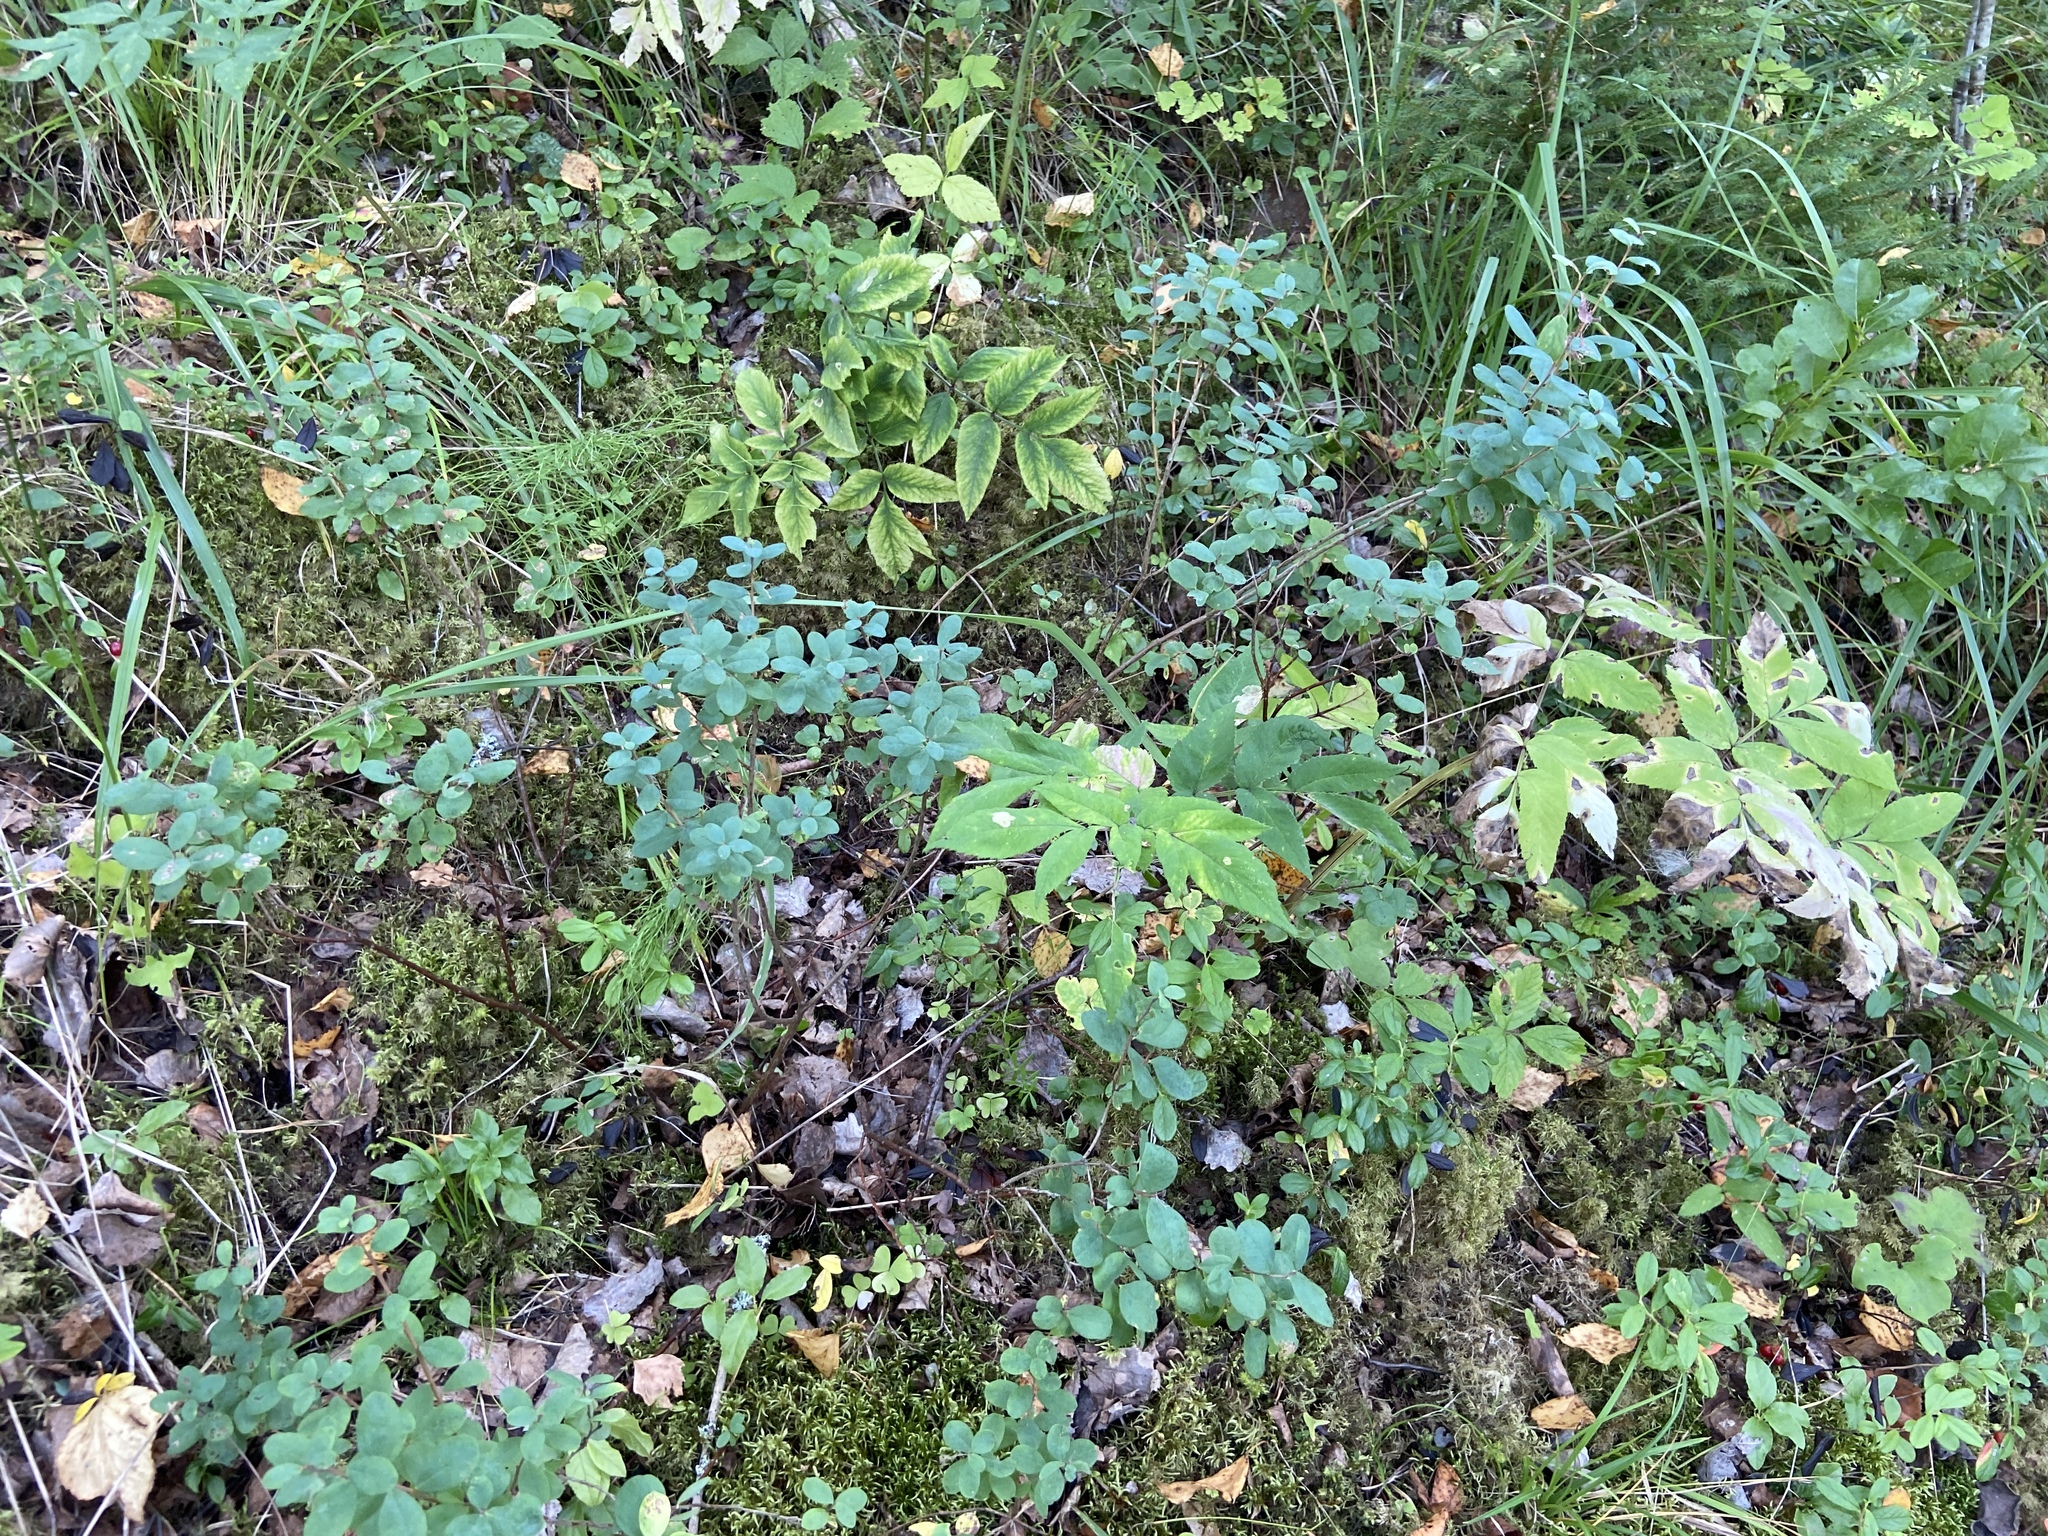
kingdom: Plantae
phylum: Tracheophyta
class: Magnoliopsida
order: Ericales
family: Ericaceae
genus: Vaccinium
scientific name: Vaccinium uliginosum
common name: Bog bilberry
